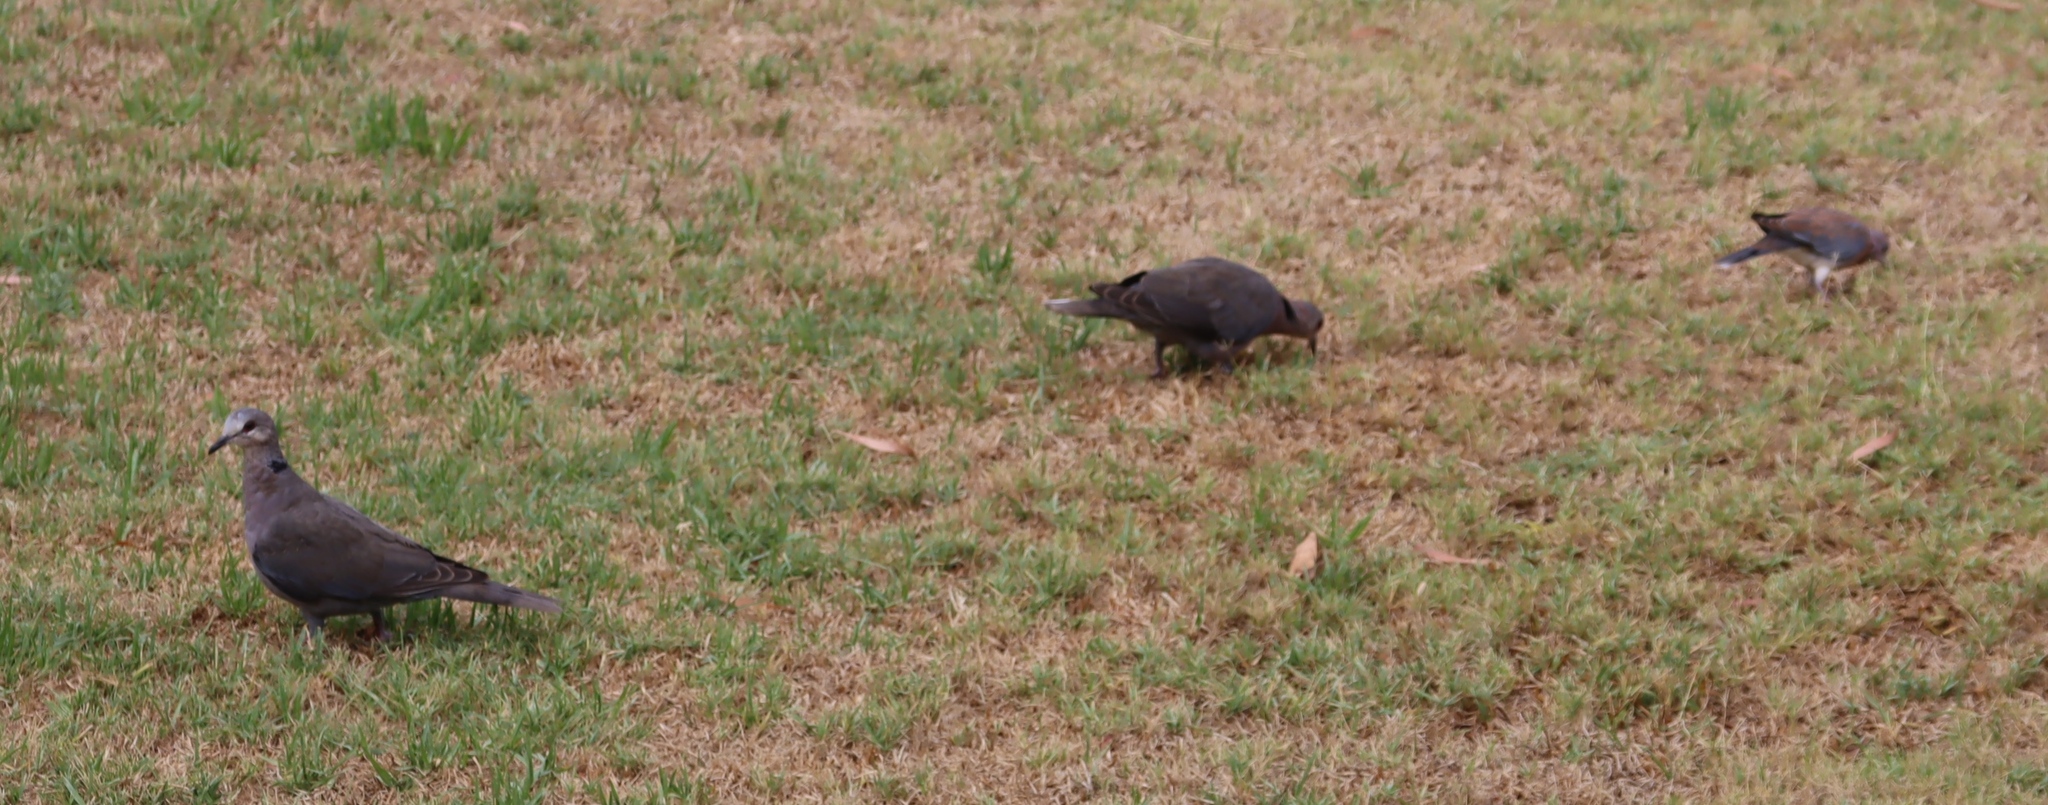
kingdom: Animalia
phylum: Chordata
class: Aves
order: Columbiformes
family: Columbidae
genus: Streptopelia
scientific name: Streptopelia semitorquata
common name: Red-eyed dove
